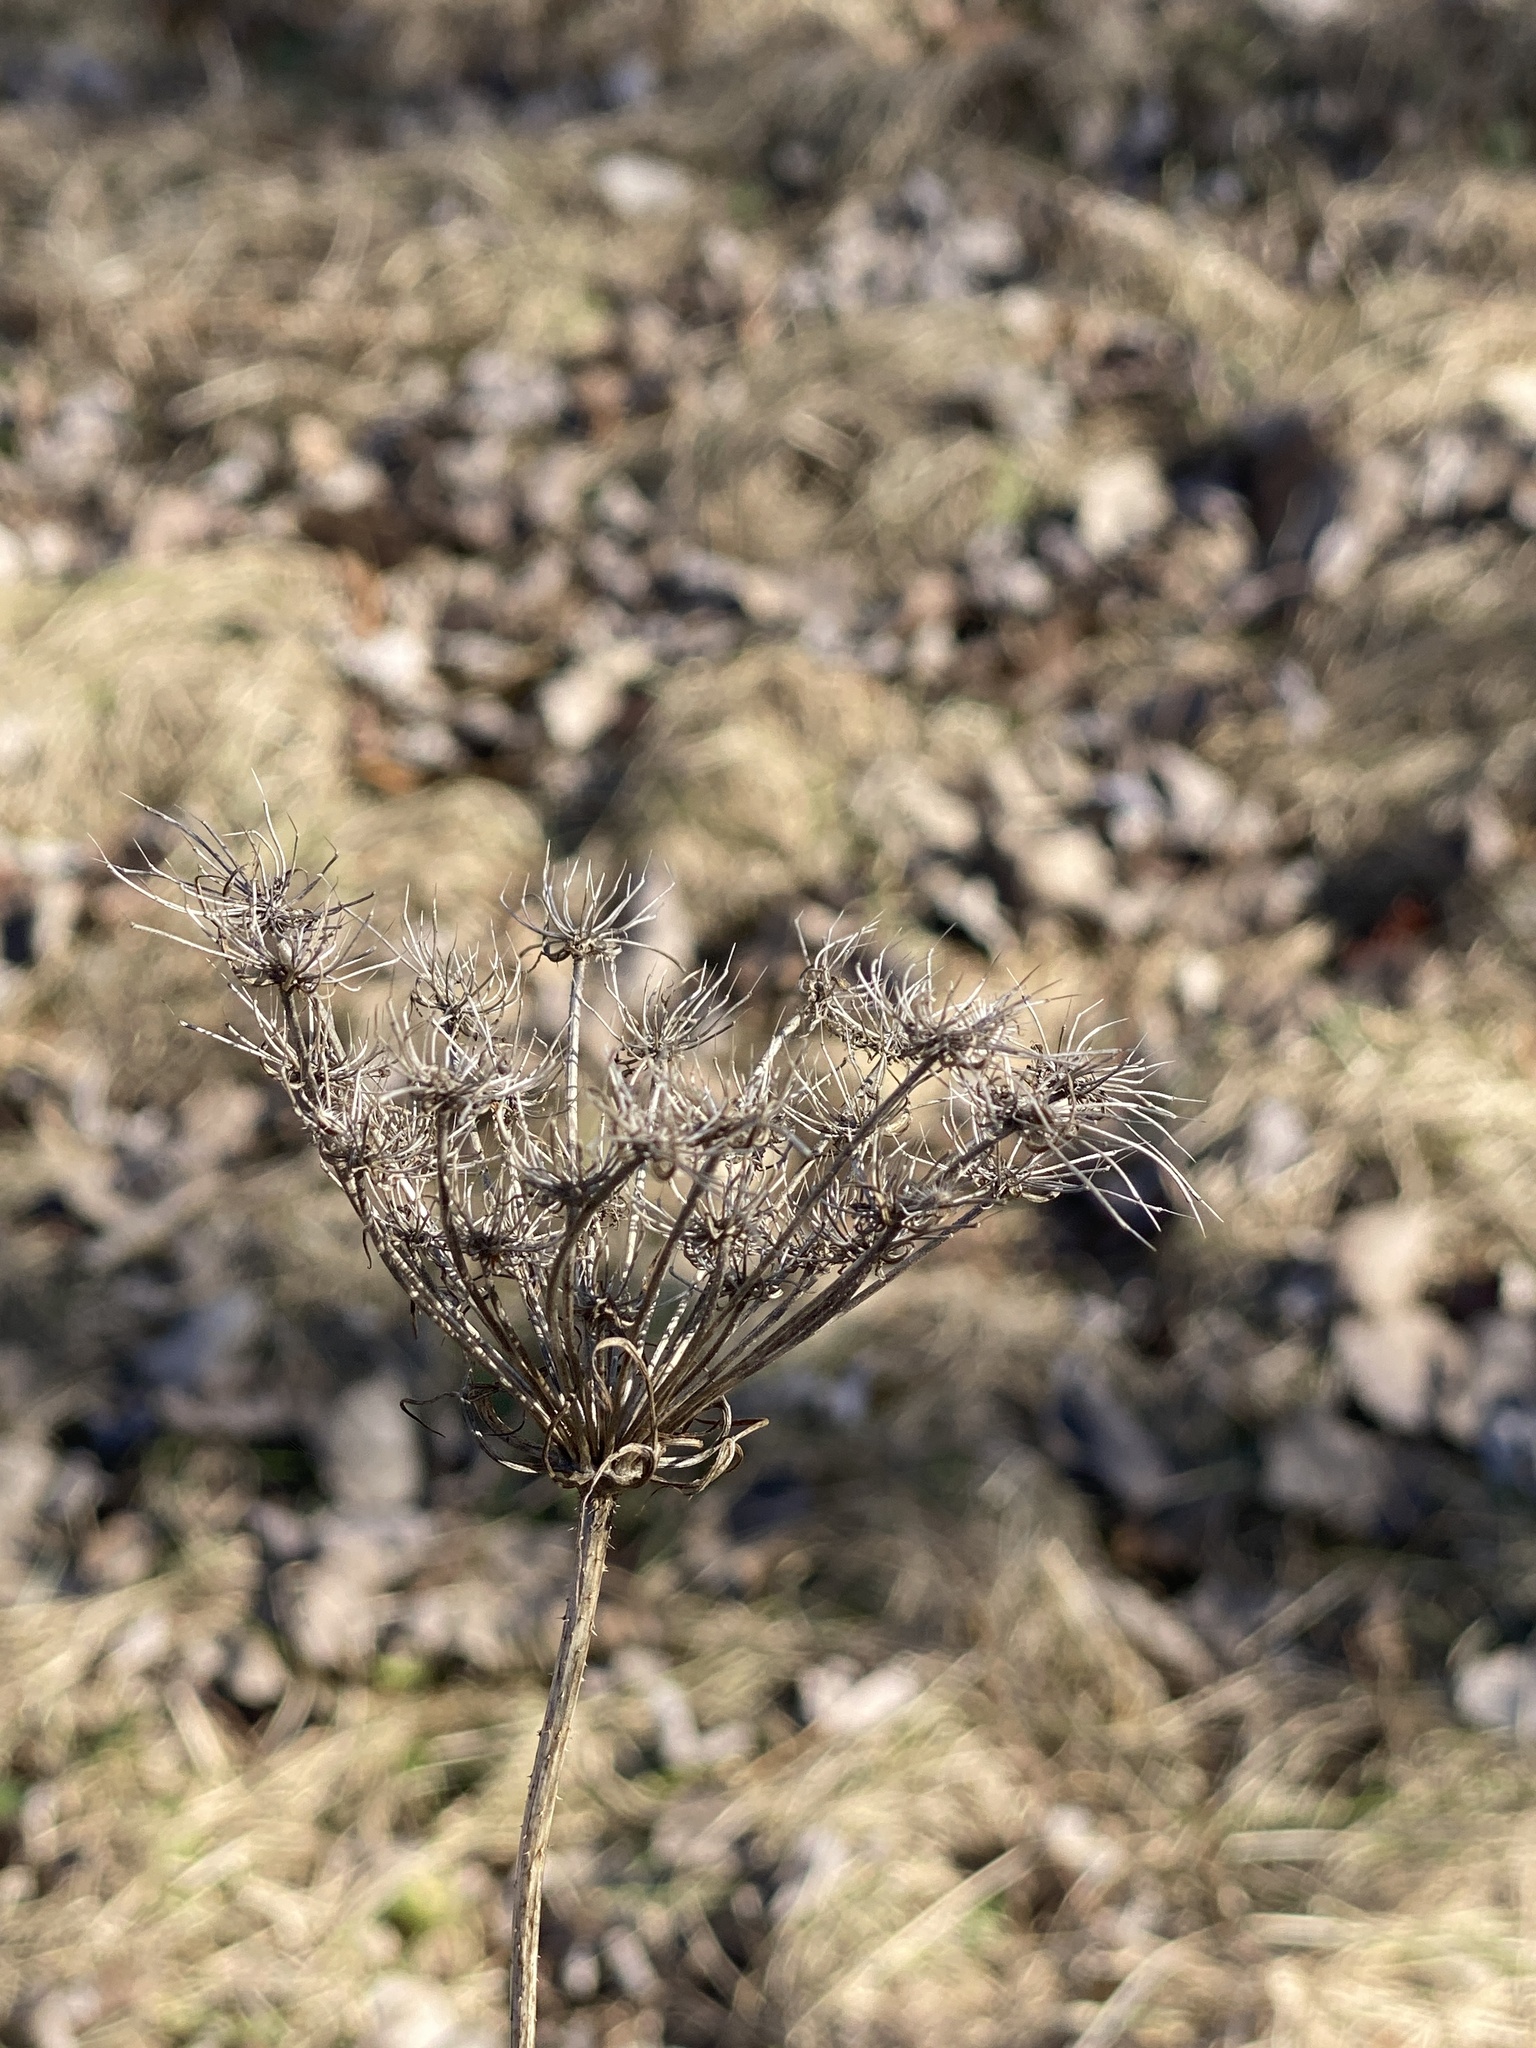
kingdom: Plantae
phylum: Tracheophyta
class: Magnoliopsida
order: Apiales
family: Apiaceae
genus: Daucus
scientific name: Daucus carota
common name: Wild carrot
